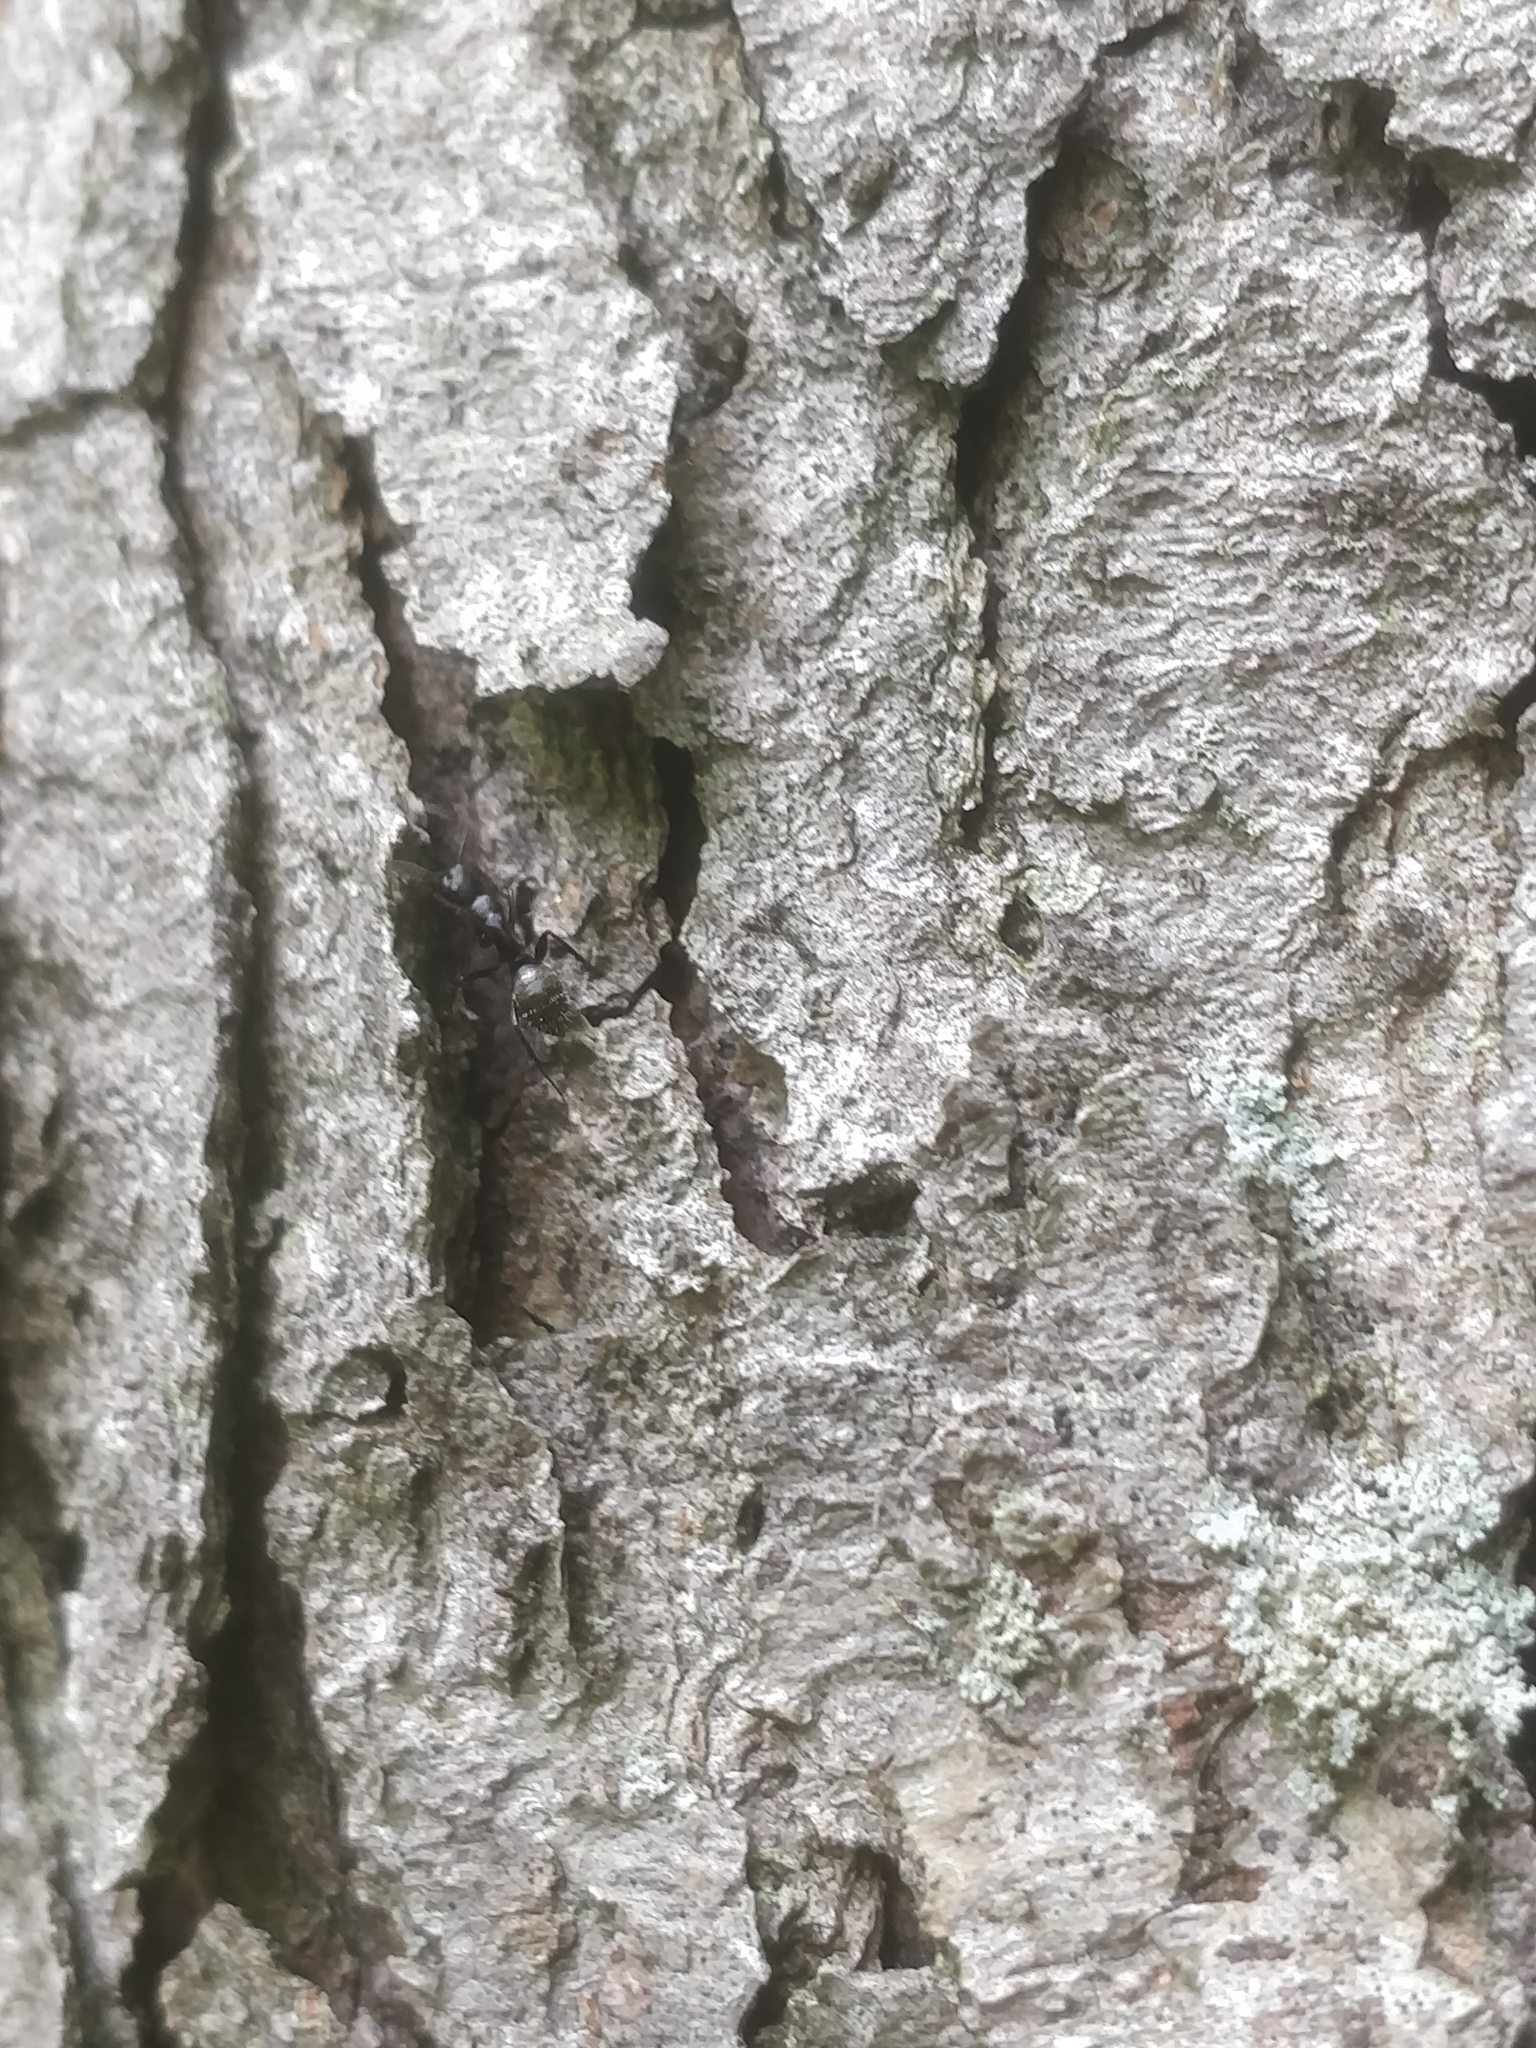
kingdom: Animalia
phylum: Arthropoda
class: Insecta
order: Hymenoptera
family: Formicidae
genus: Camponotus
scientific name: Camponotus pennsylvanicus
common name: Black carpenter ant
